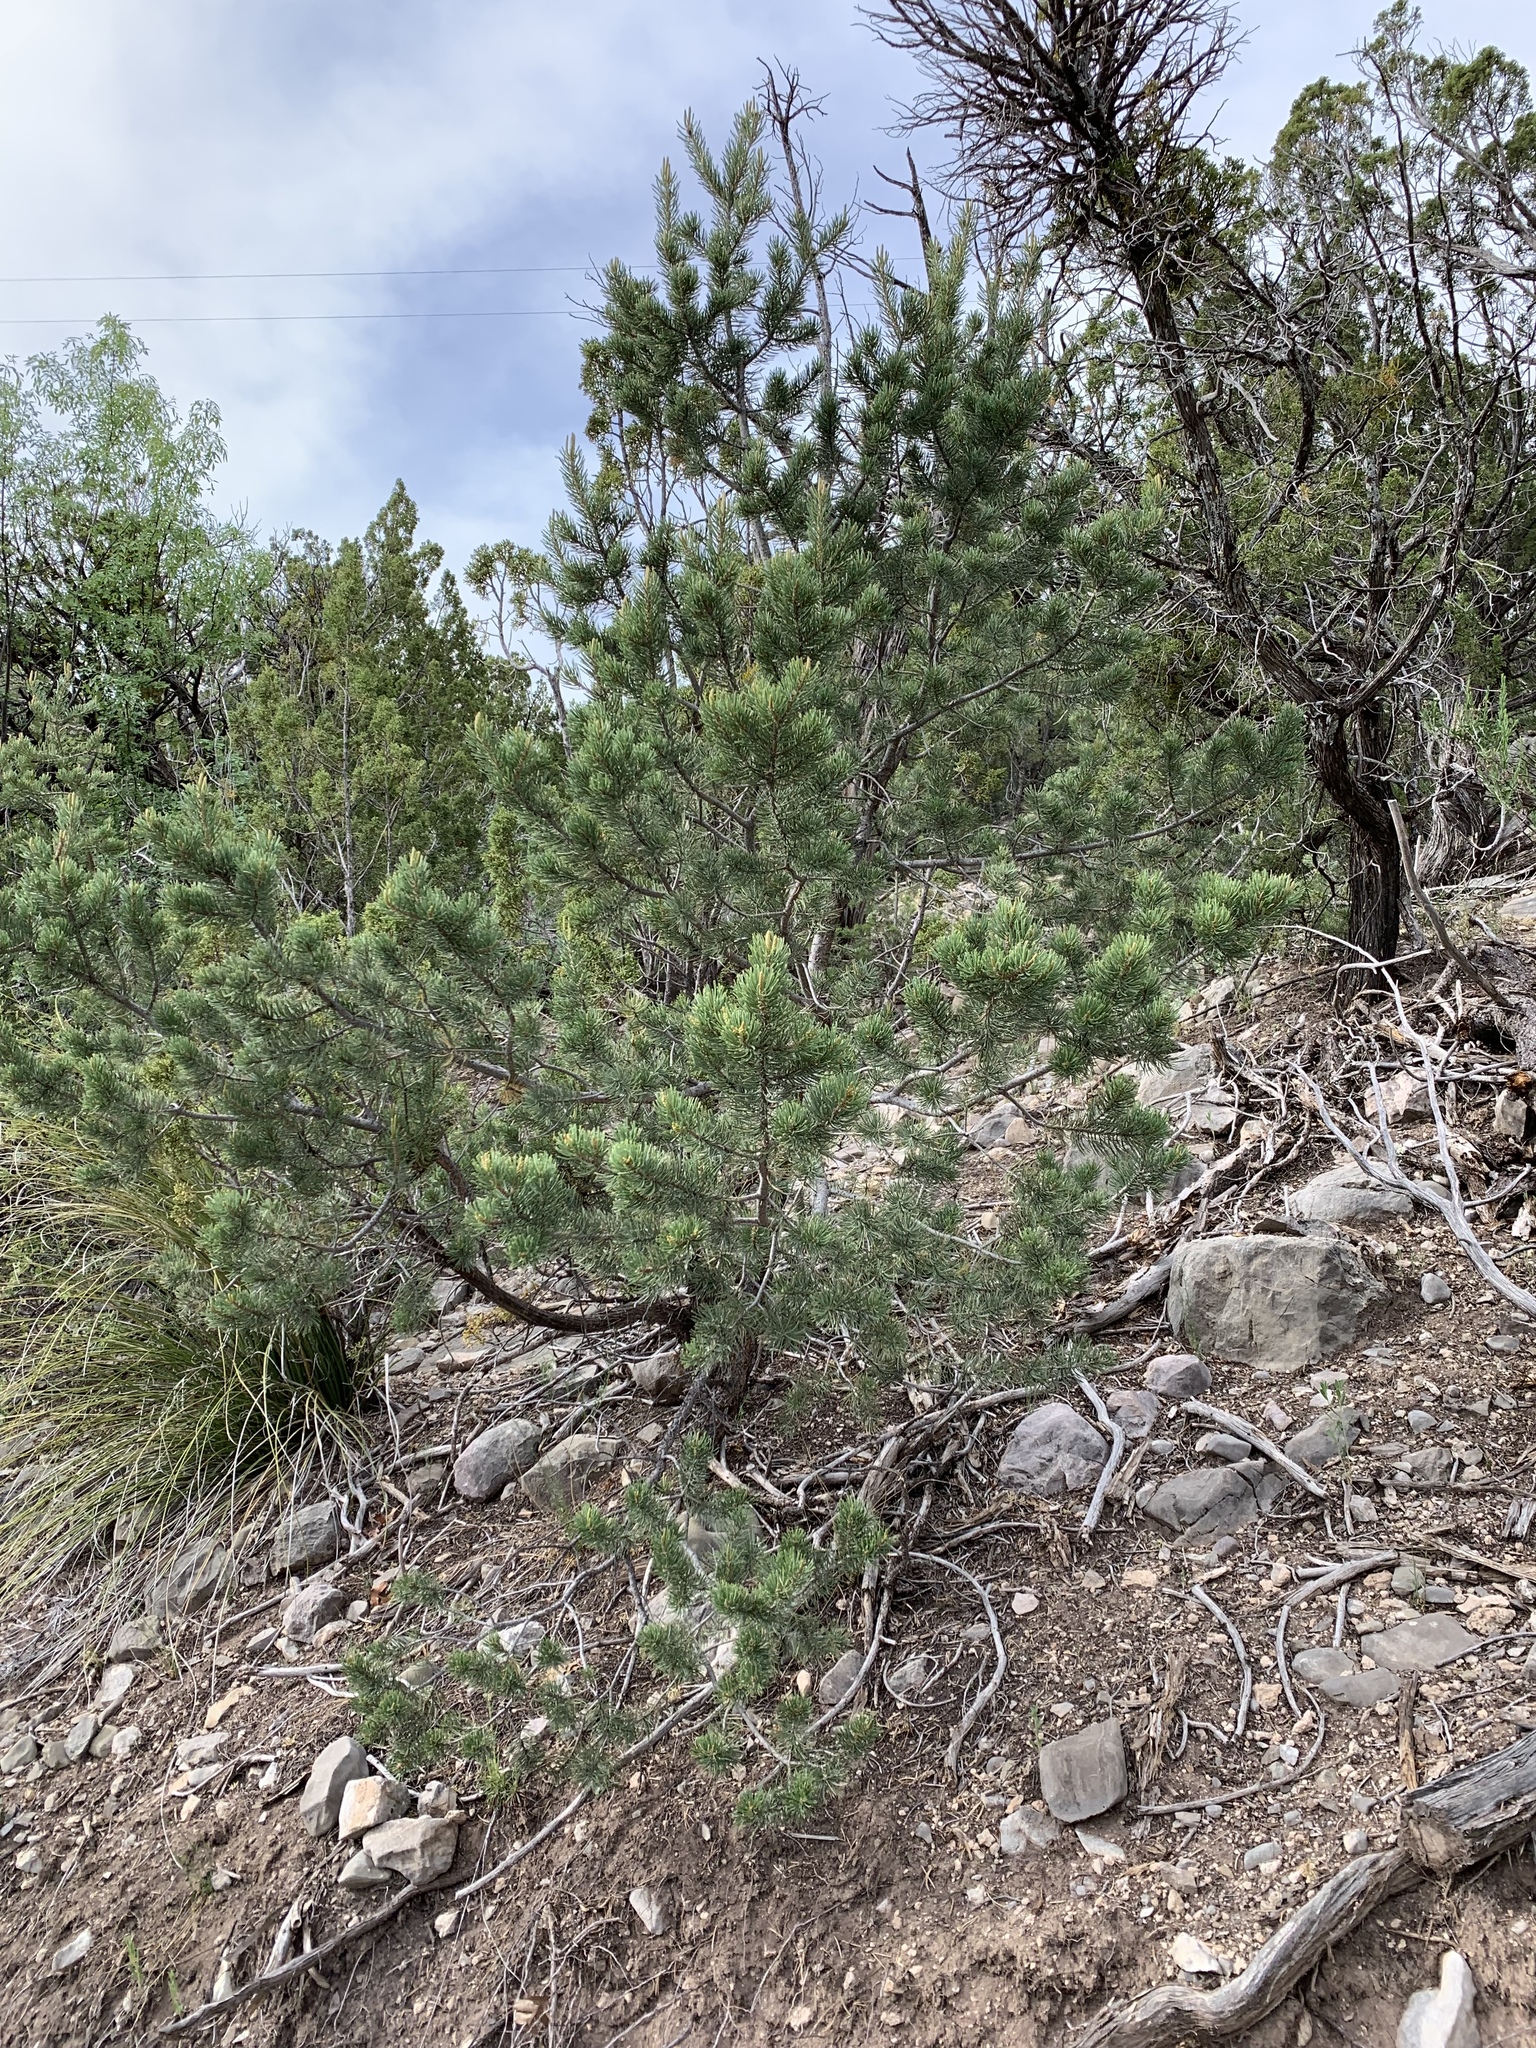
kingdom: Plantae
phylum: Tracheophyta
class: Pinopsida
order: Pinales
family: Pinaceae
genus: Pinus
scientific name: Pinus edulis
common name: Colorado pinyon
